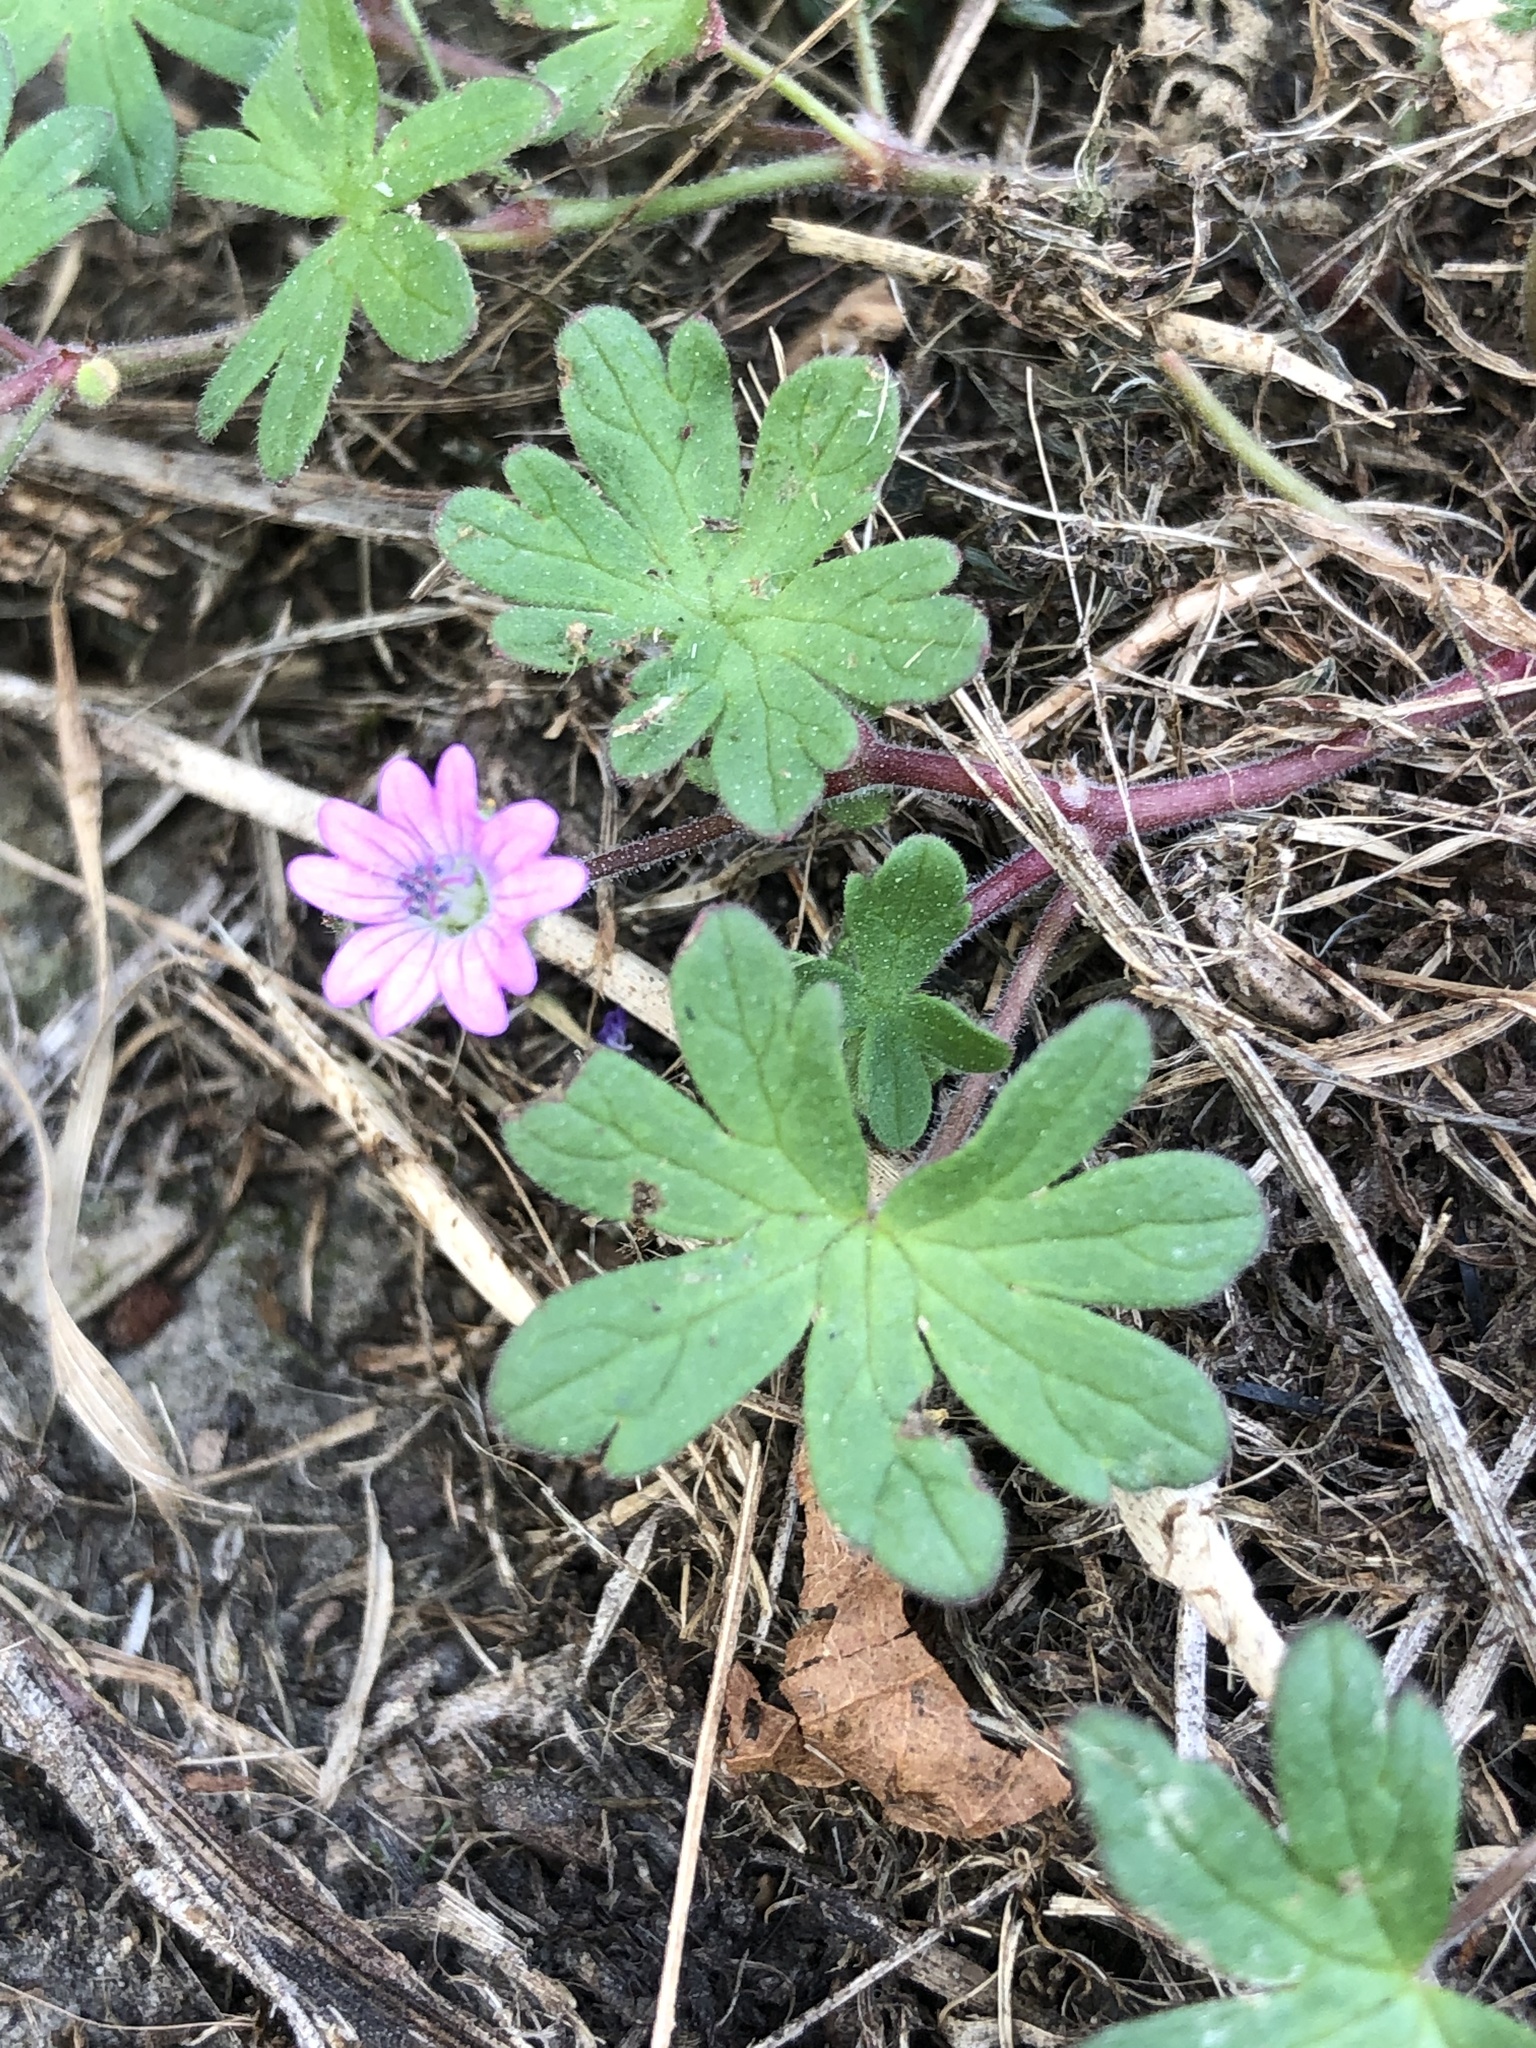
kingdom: Plantae
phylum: Tracheophyta
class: Magnoliopsida
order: Geraniales
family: Geraniaceae
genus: Geranium
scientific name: Geranium molle
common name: Dove's-foot crane's-bill
